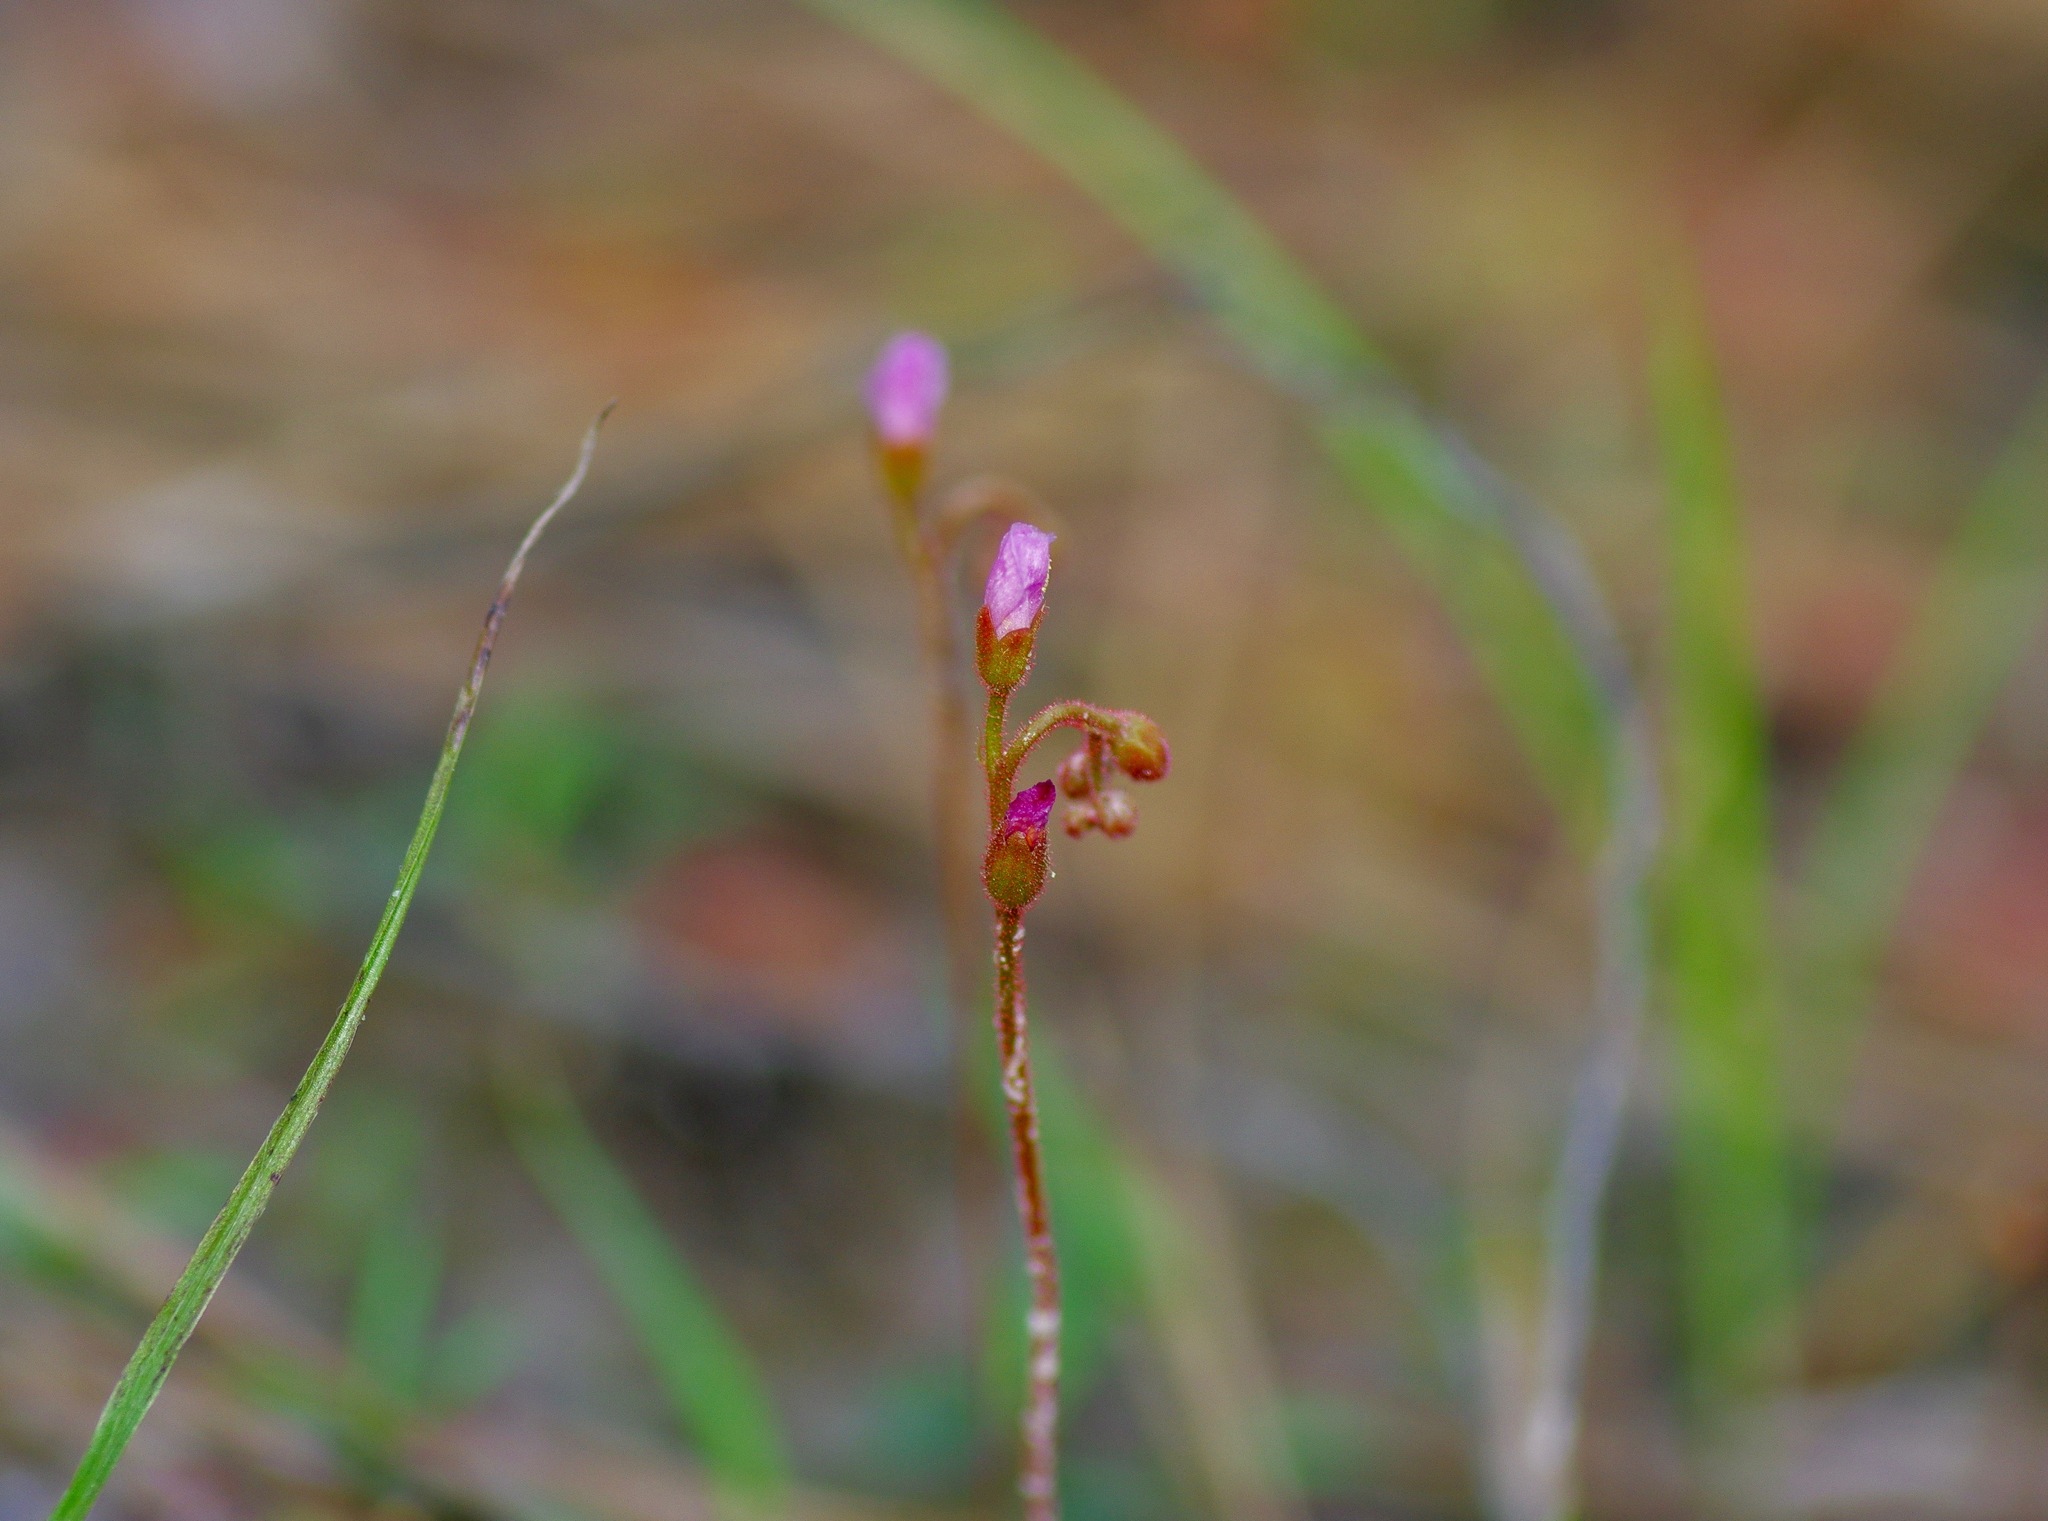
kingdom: Plantae
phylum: Tracheophyta
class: Magnoliopsida
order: Caryophyllales
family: Droseraceae
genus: Drosera
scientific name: Drosera brevifolia
